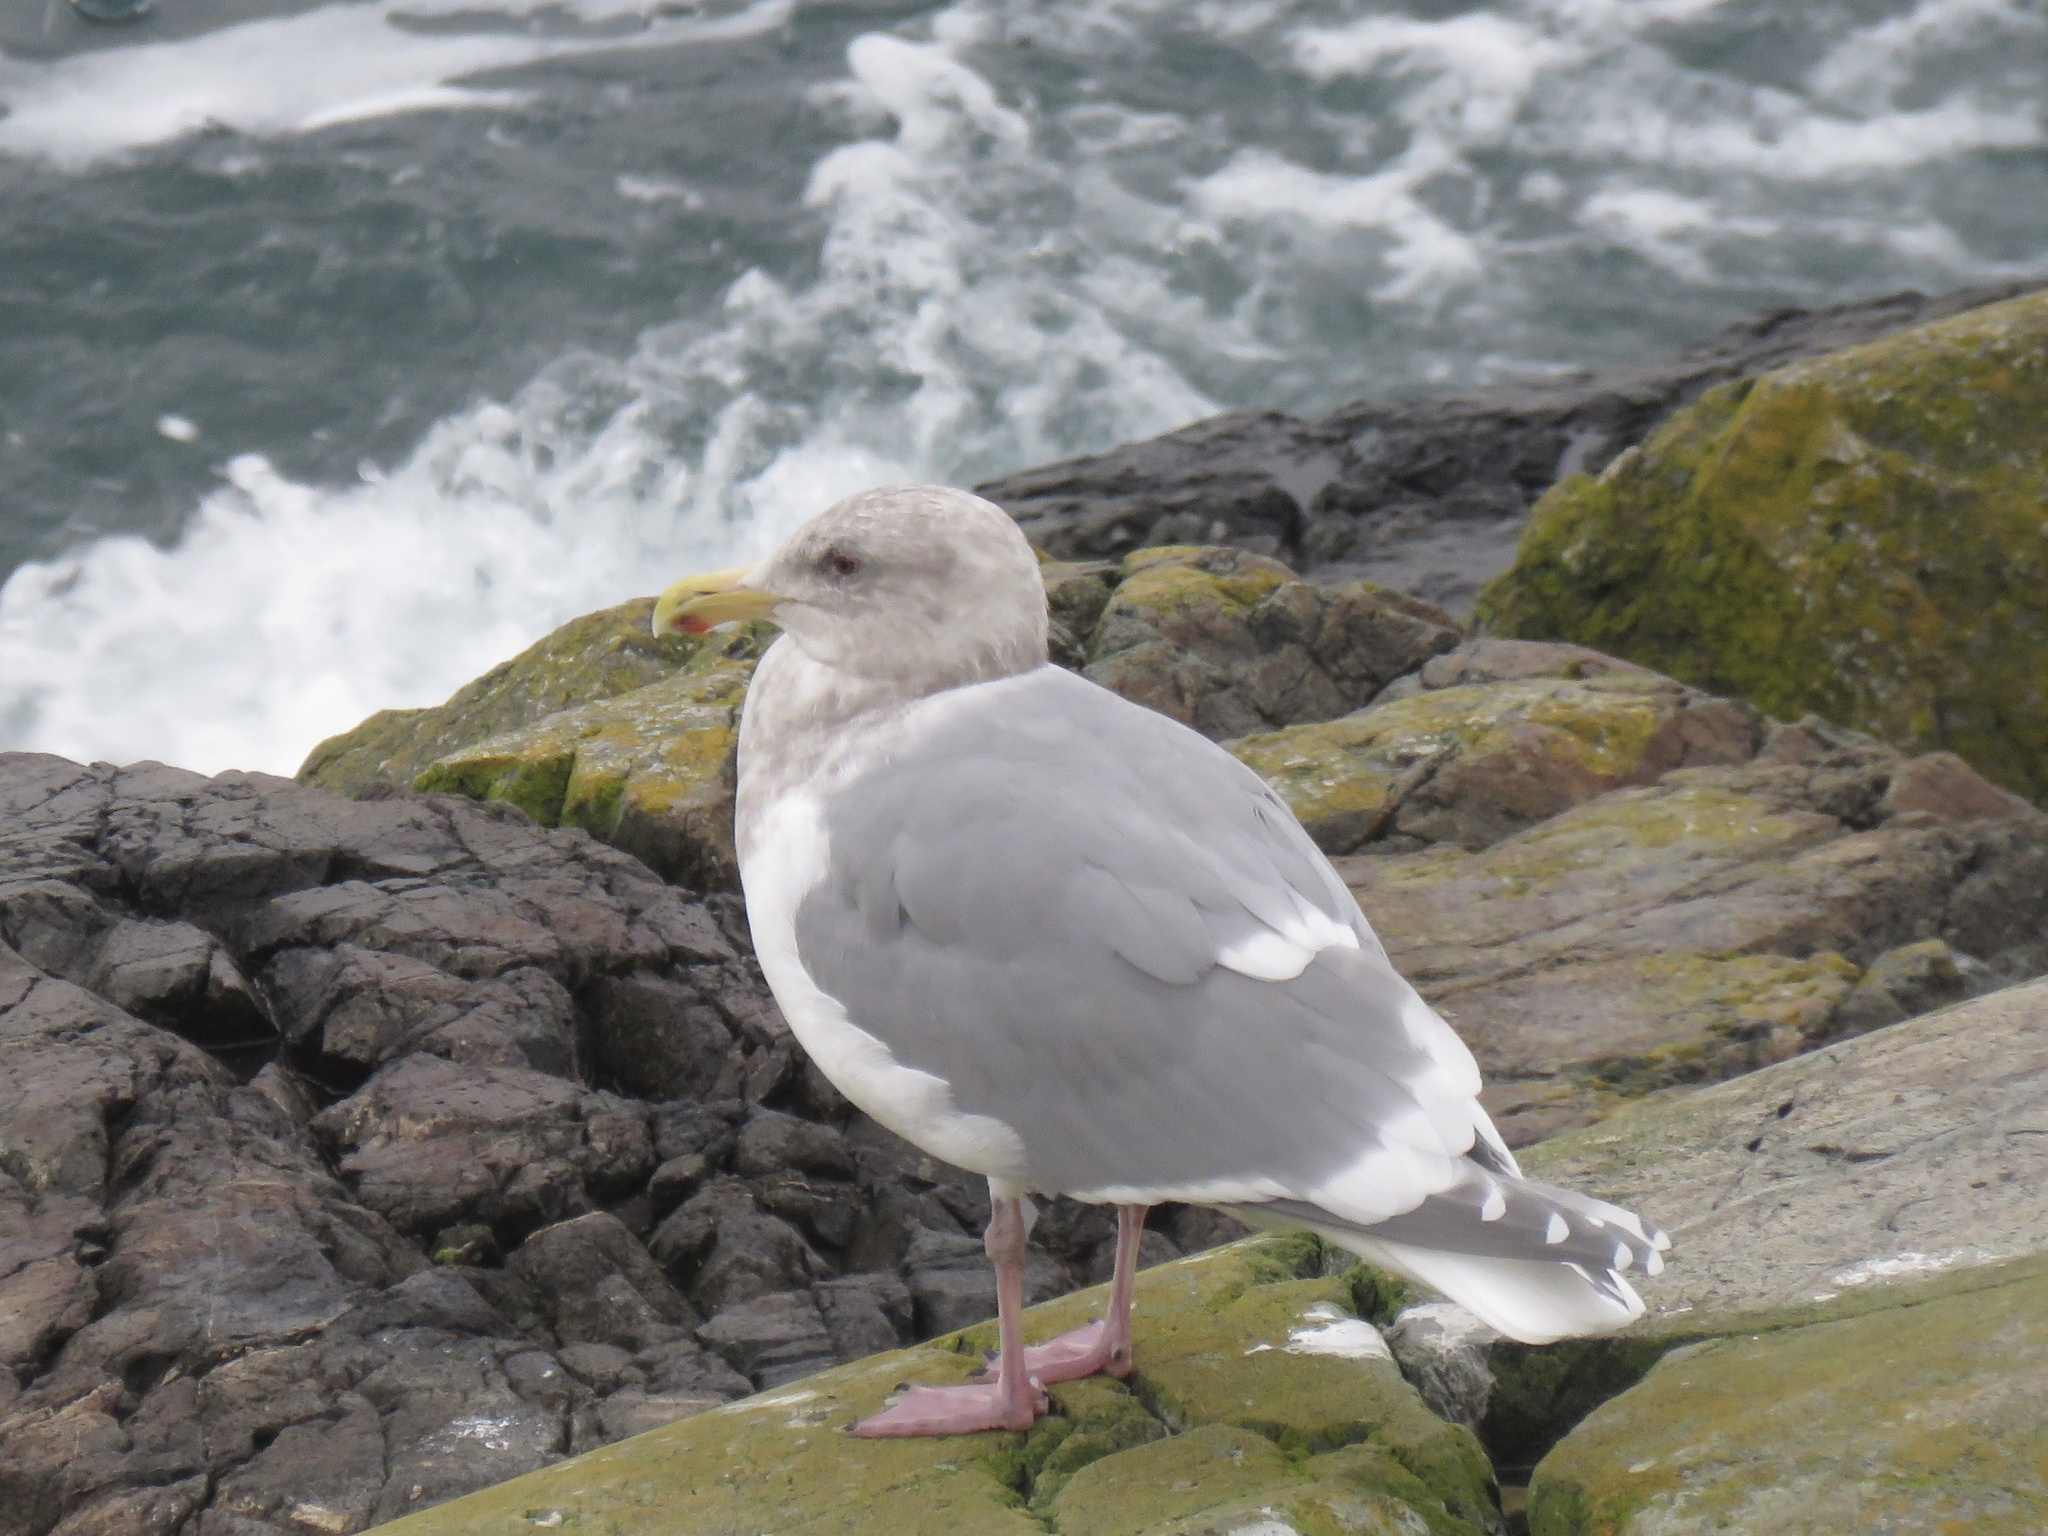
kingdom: Animalia
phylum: Chordata
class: Aves
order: Charadriiformes
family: Laridae
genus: Larus
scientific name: Larus
